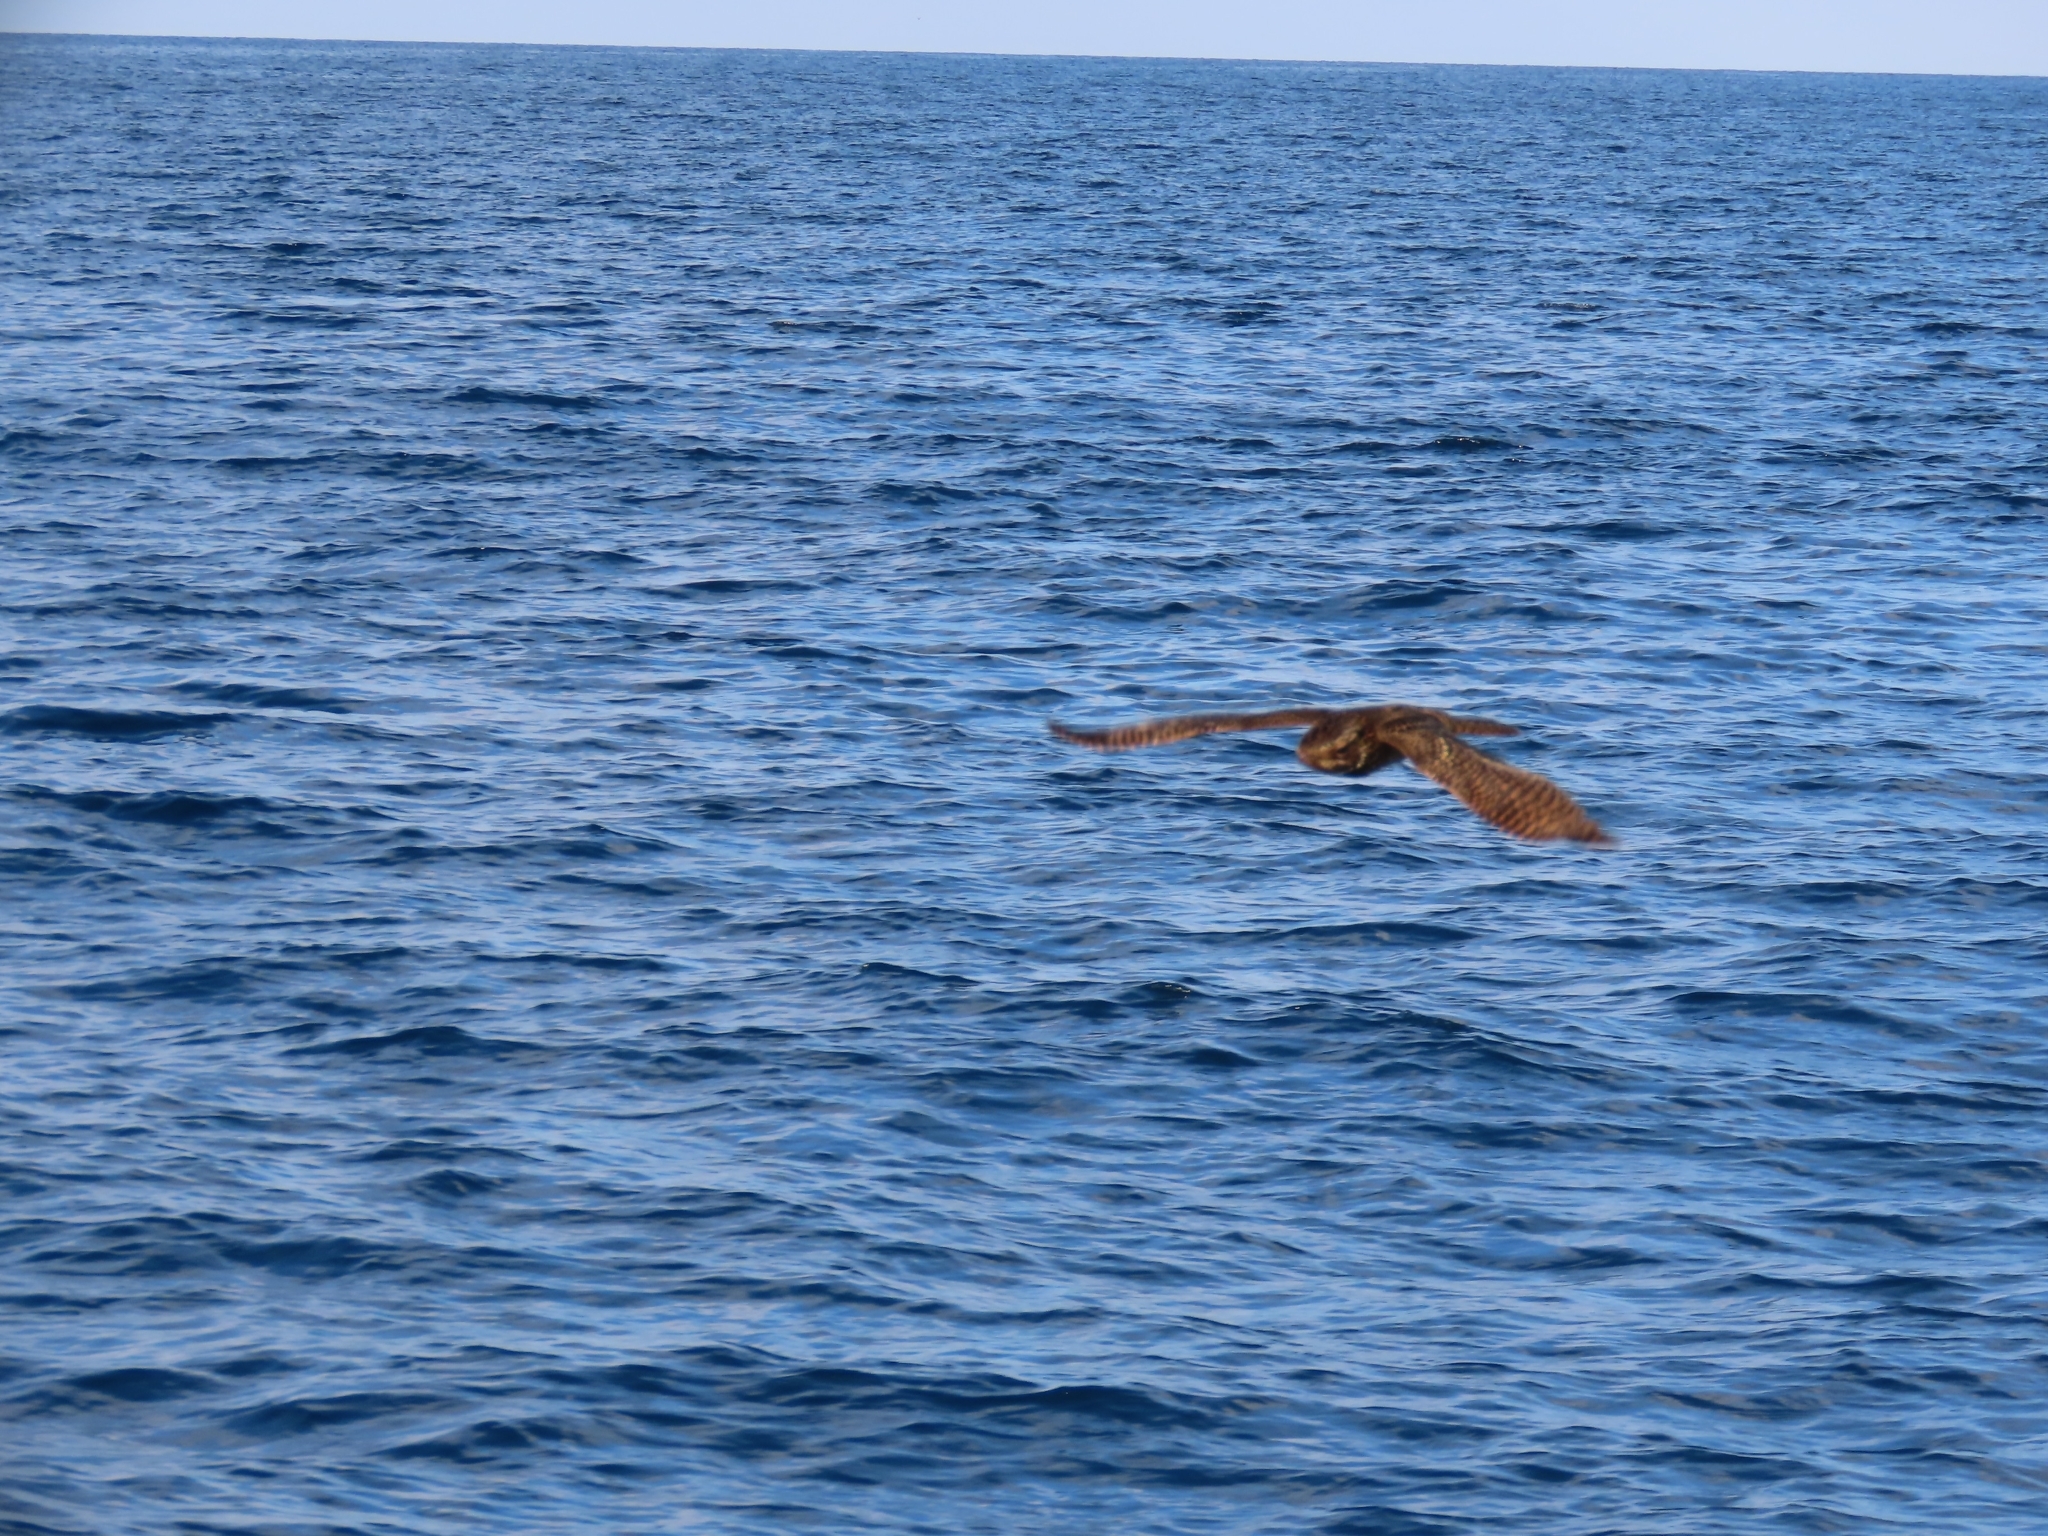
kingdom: Animalia
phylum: Chordata
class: Aves
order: Caprimulgiformes
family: Caprimulgidae
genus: Antrostomus
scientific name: Antrostomus carolinensis
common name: Chuck-will's-widow
